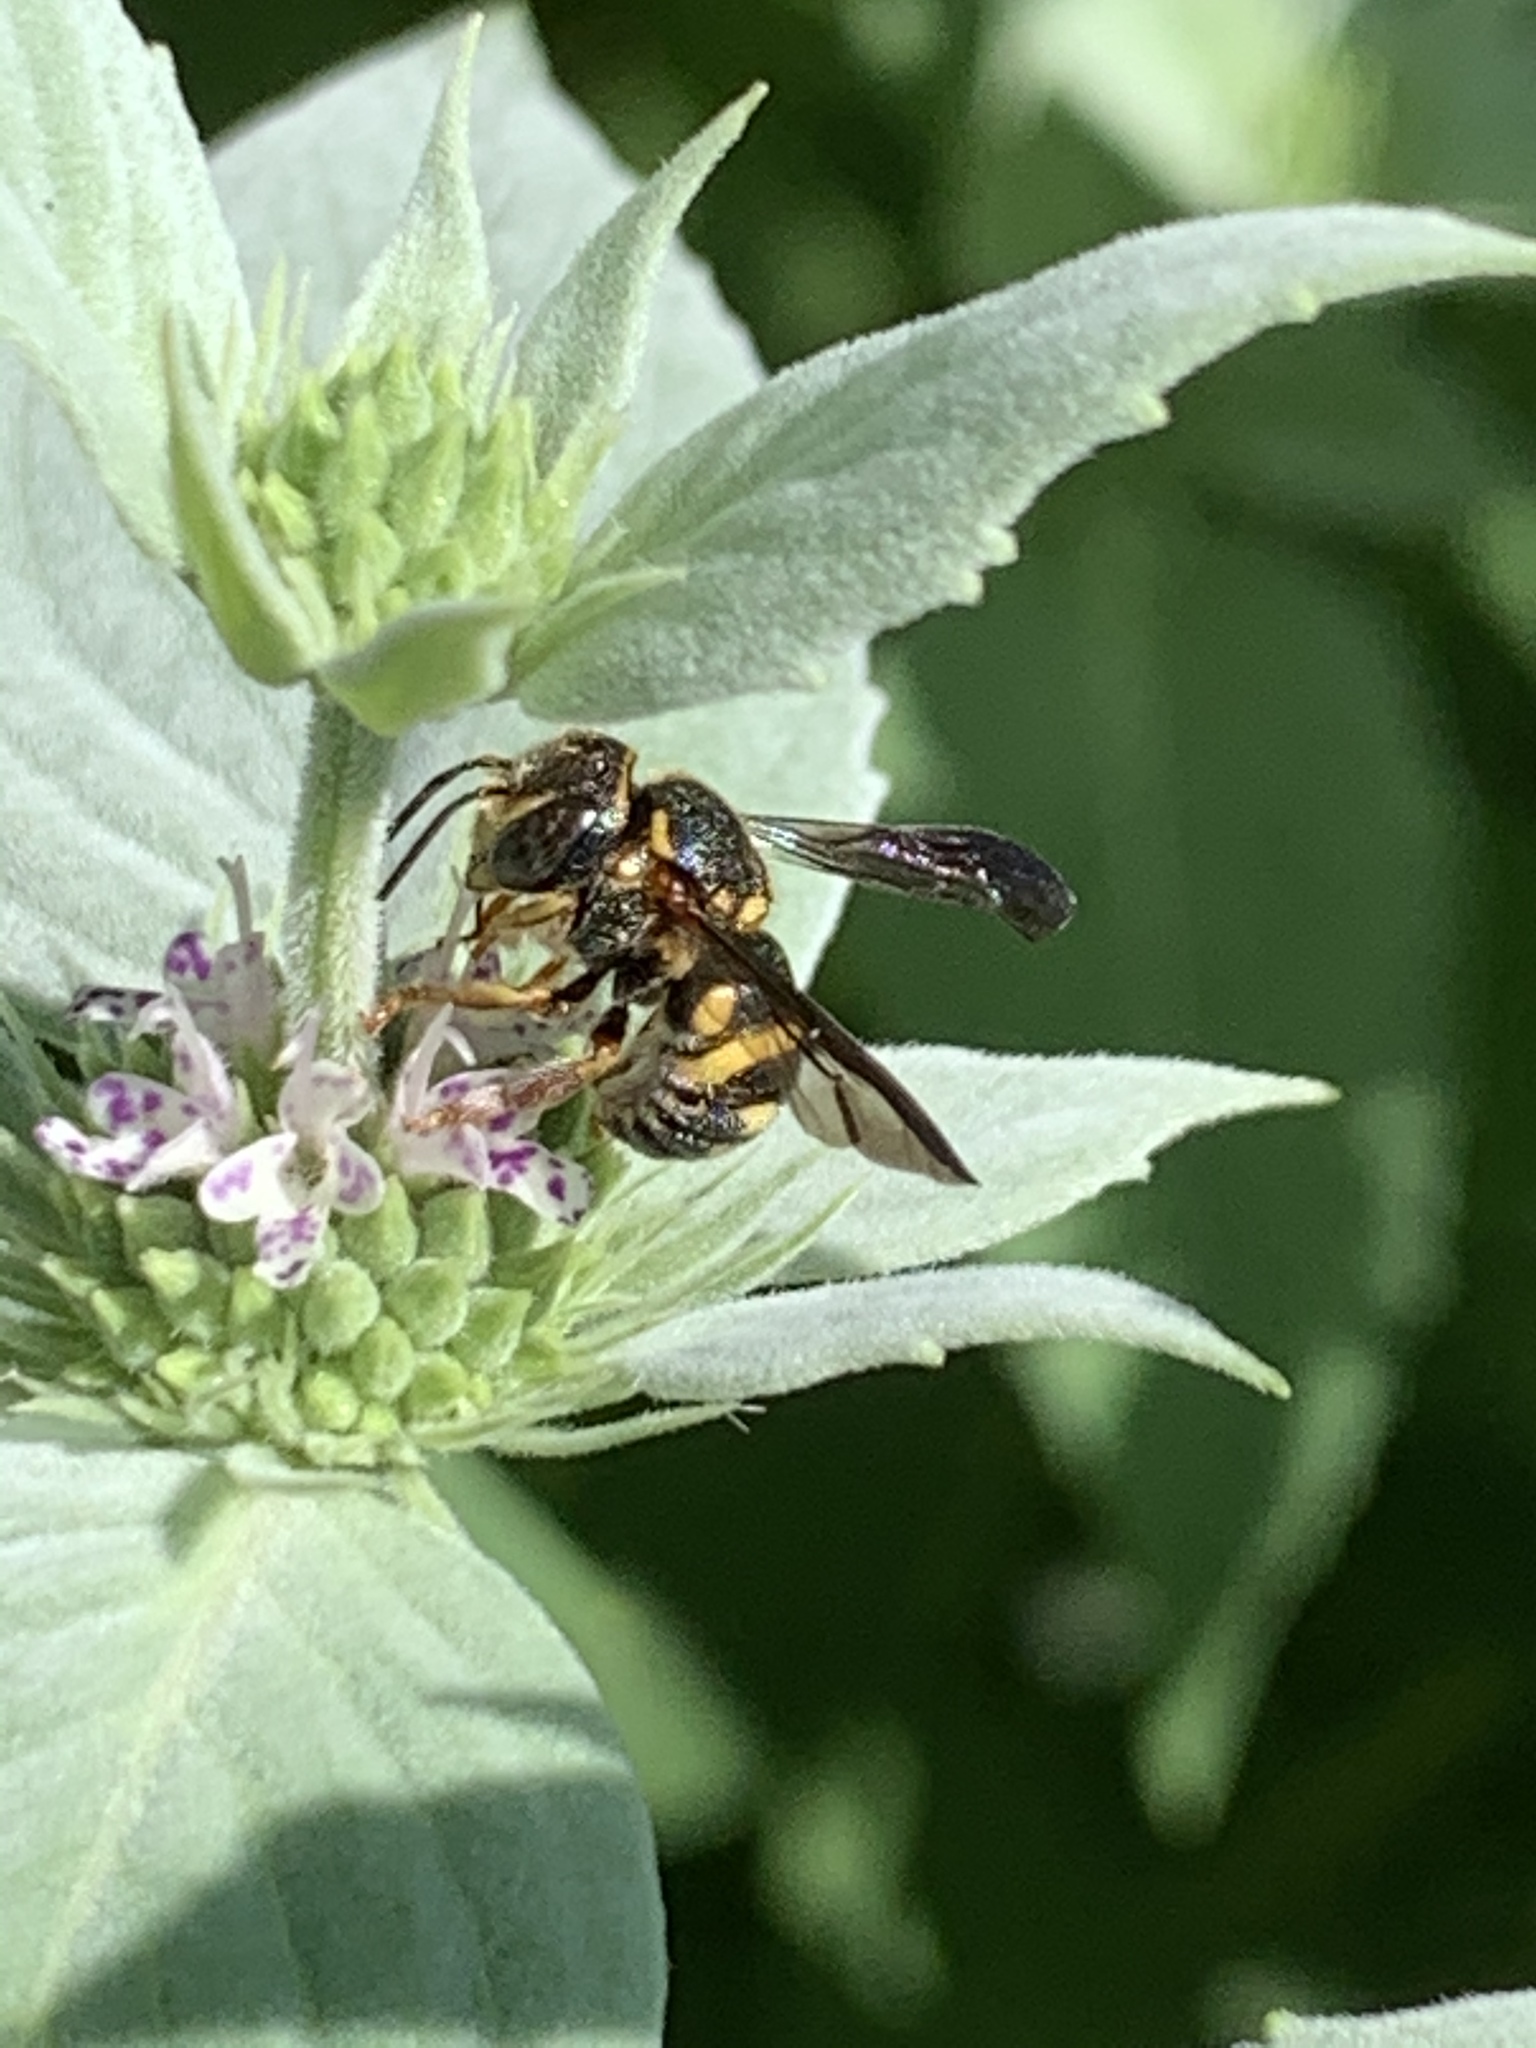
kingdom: Animalia
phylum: Arthropoda
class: Insecta
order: Hymenoptera
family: Megachilidae
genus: Anthidiellum
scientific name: Anthidiellum notatum
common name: Northern rotund-resin bee
